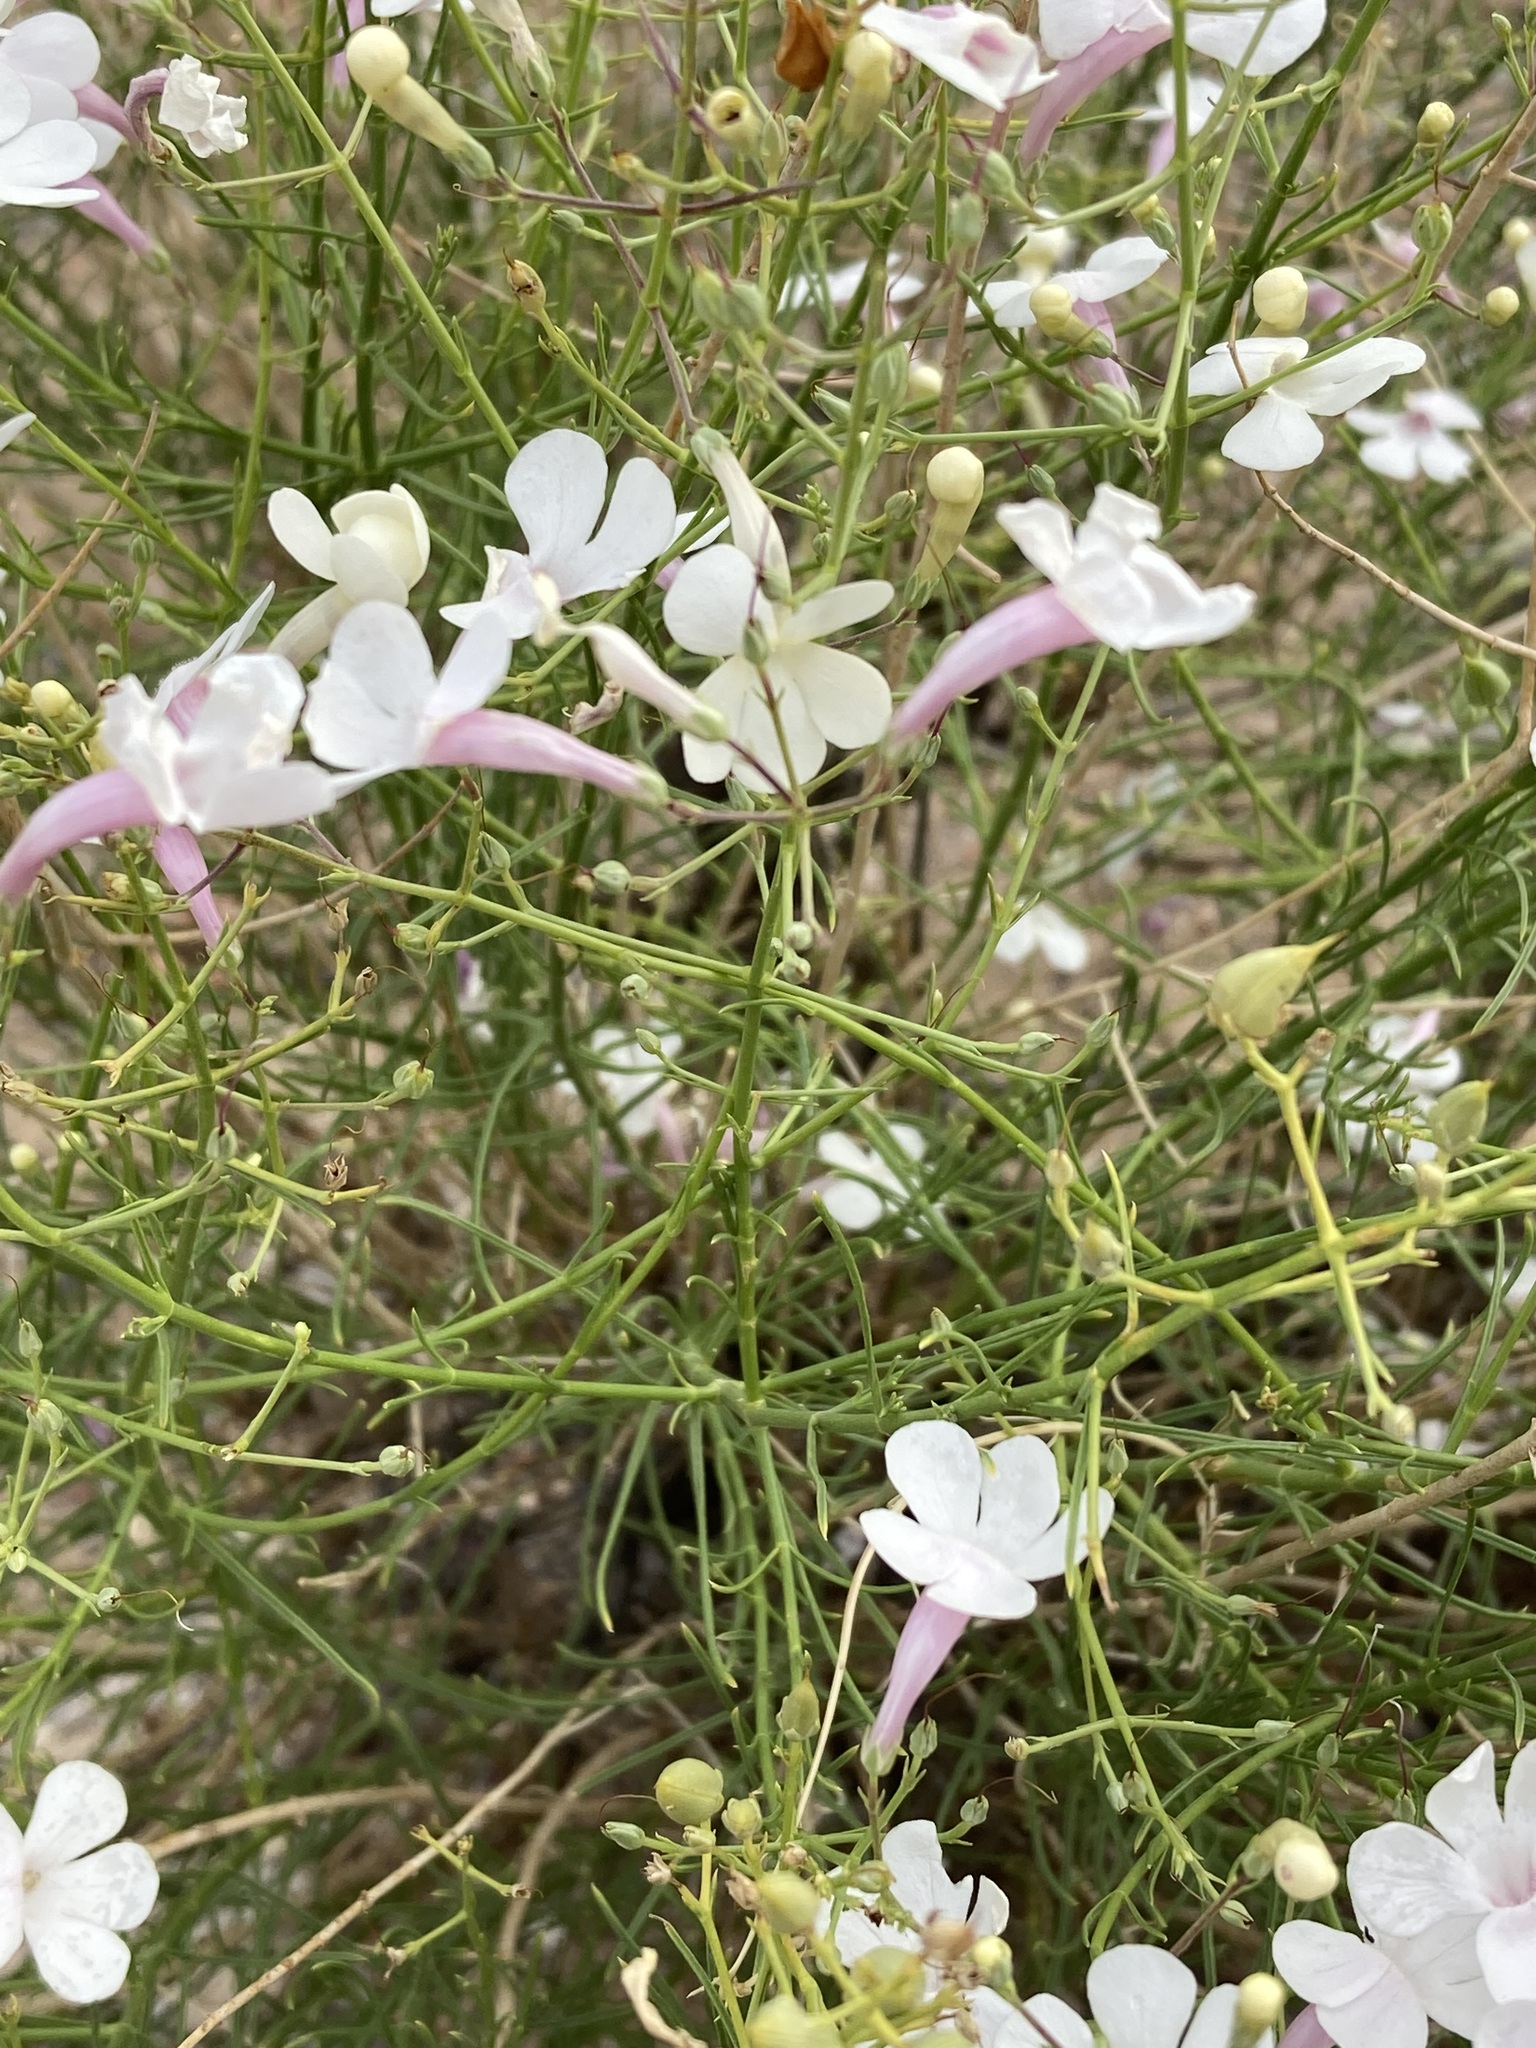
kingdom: Plantae
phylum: Tracheophyta
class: Magnoliopsida
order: Lamiales
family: Plantaginaceae
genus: Penstemon
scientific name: Penstemon ambiguus
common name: Bush penstemon
